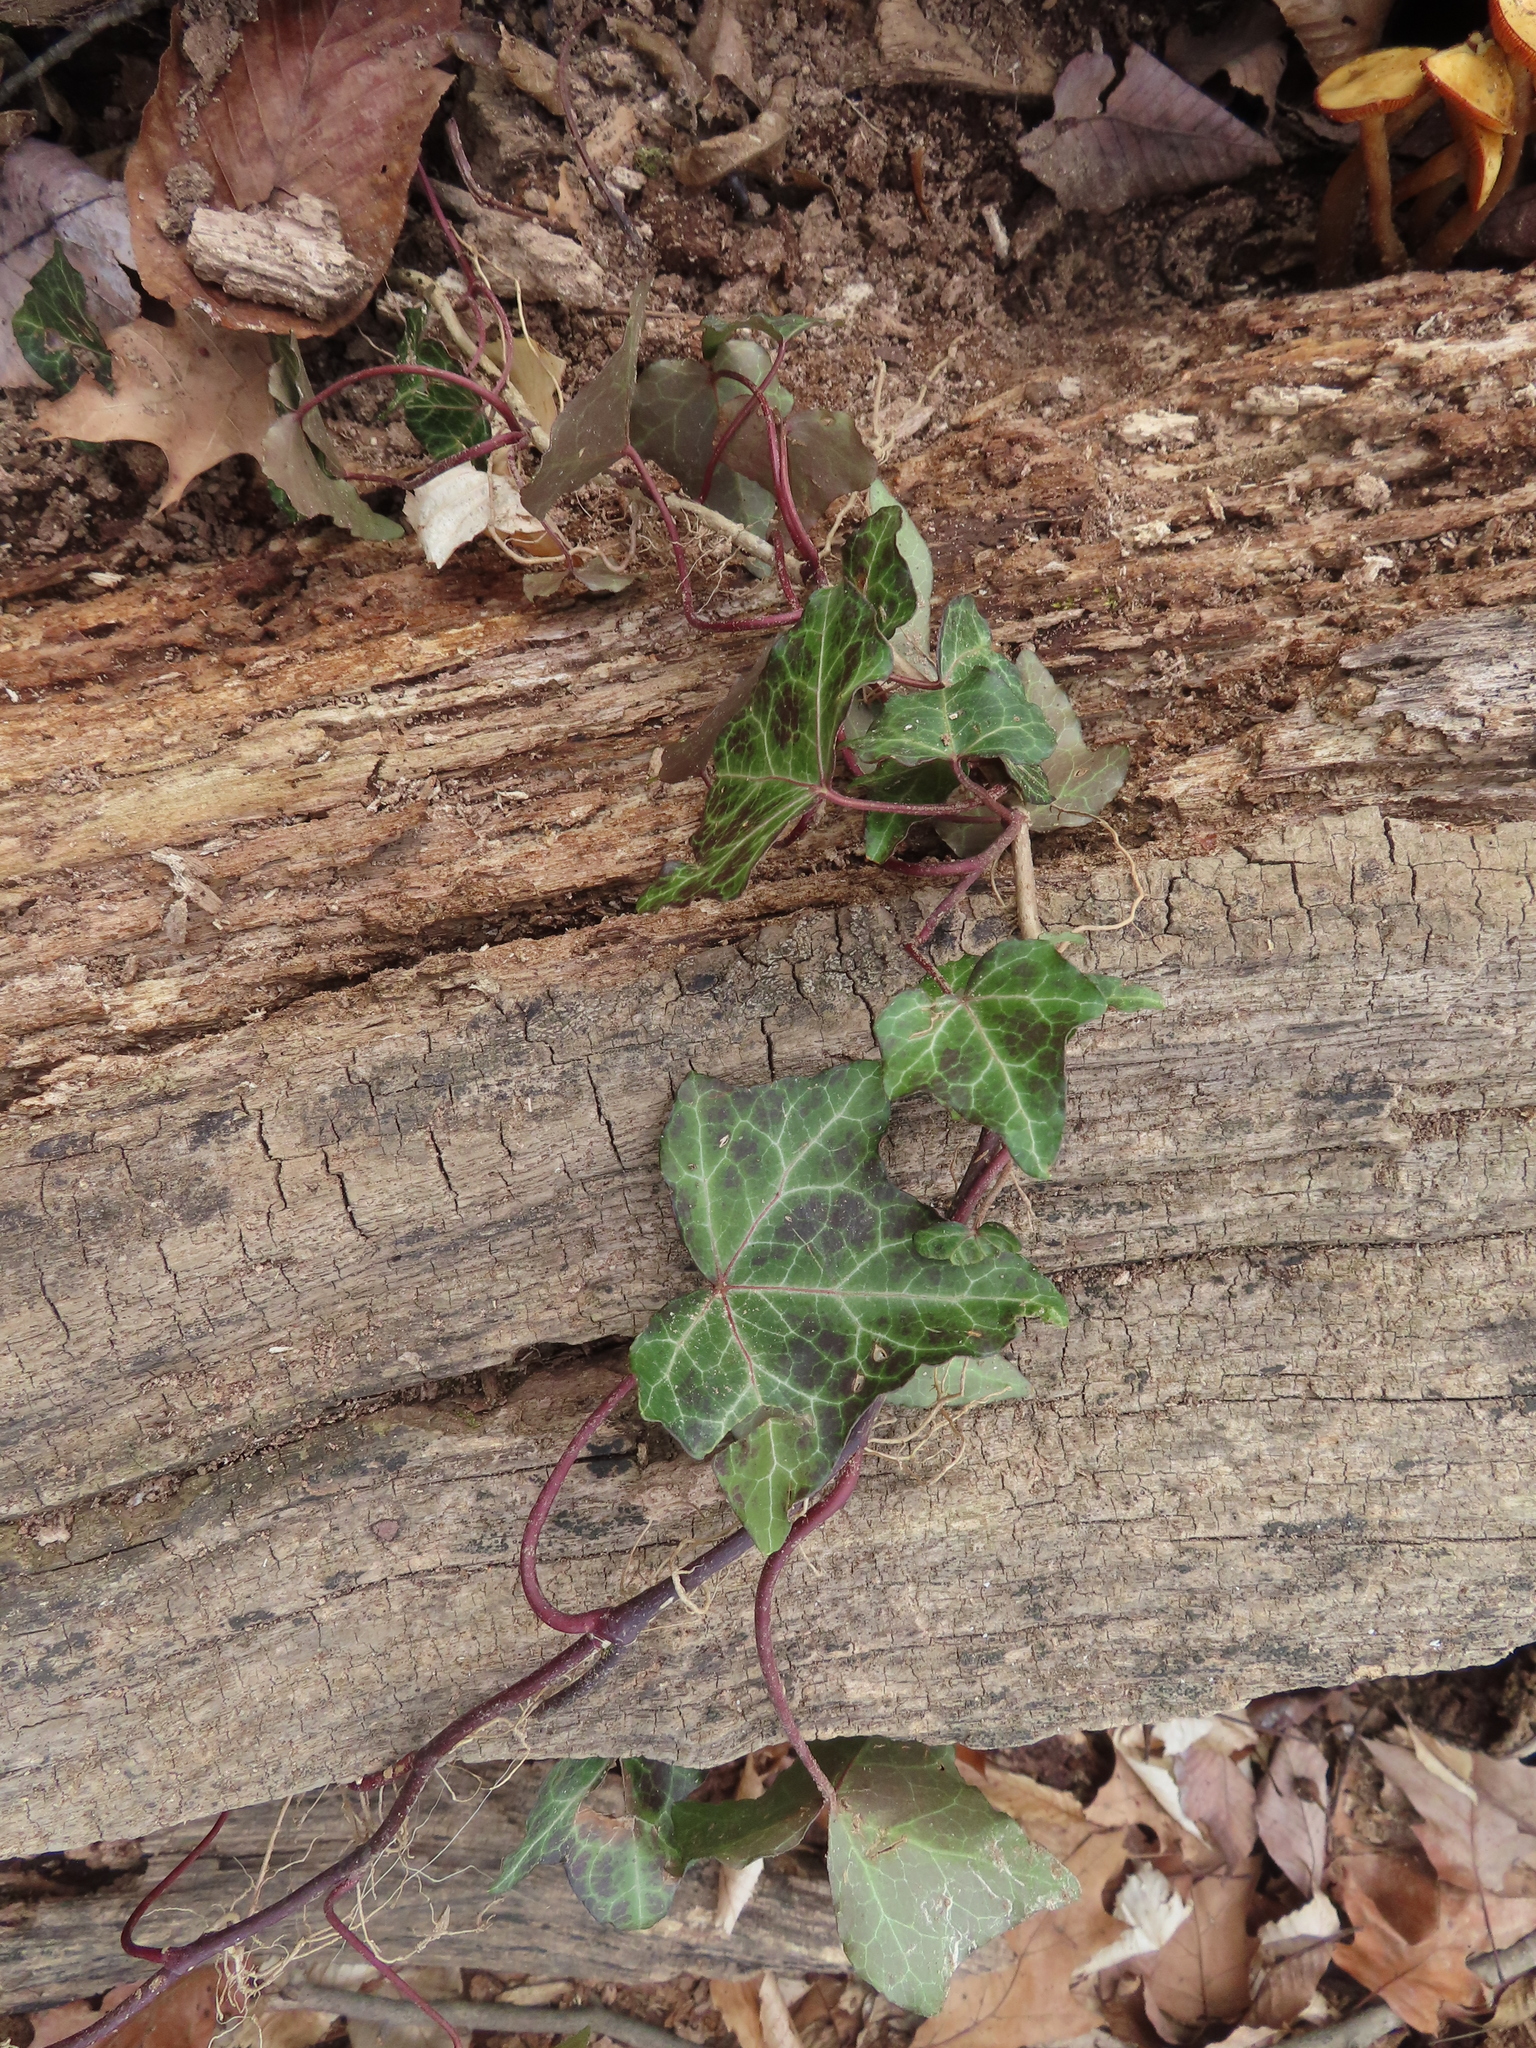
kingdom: Plantae
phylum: Tracheophyta
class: Magnoliopsida
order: Apiales
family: Araliaceae
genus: Hedera
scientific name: Hedera helix
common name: Ivy
